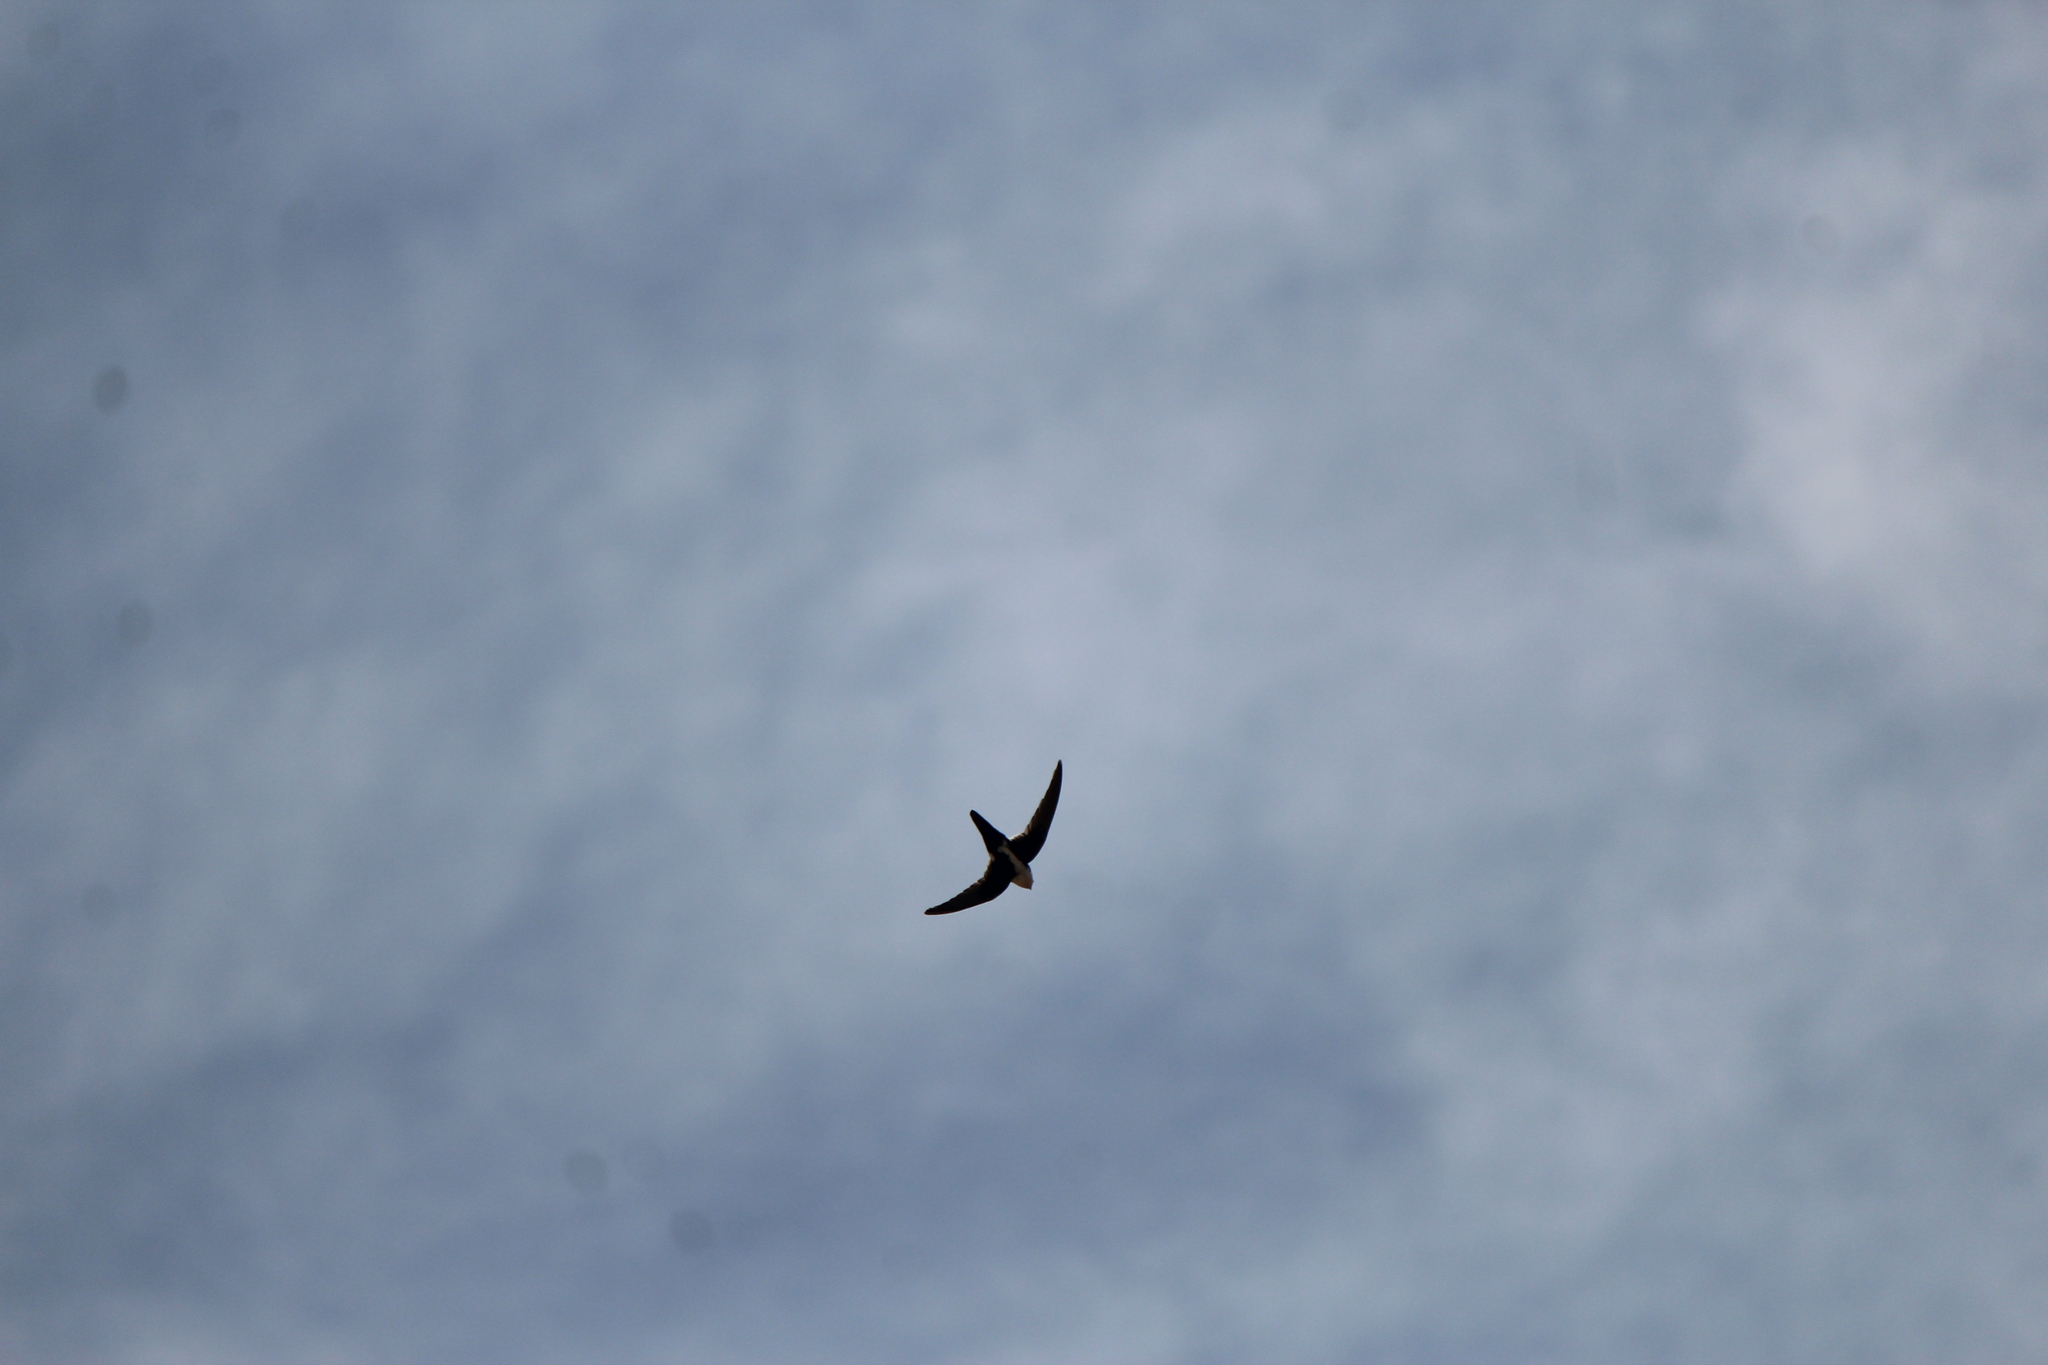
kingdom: Animalia
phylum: Chordata
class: Aves
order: Apodiformes
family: Apodidae
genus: Aeronautes
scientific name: Aeronautes saxatalis
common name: White-throated swift
